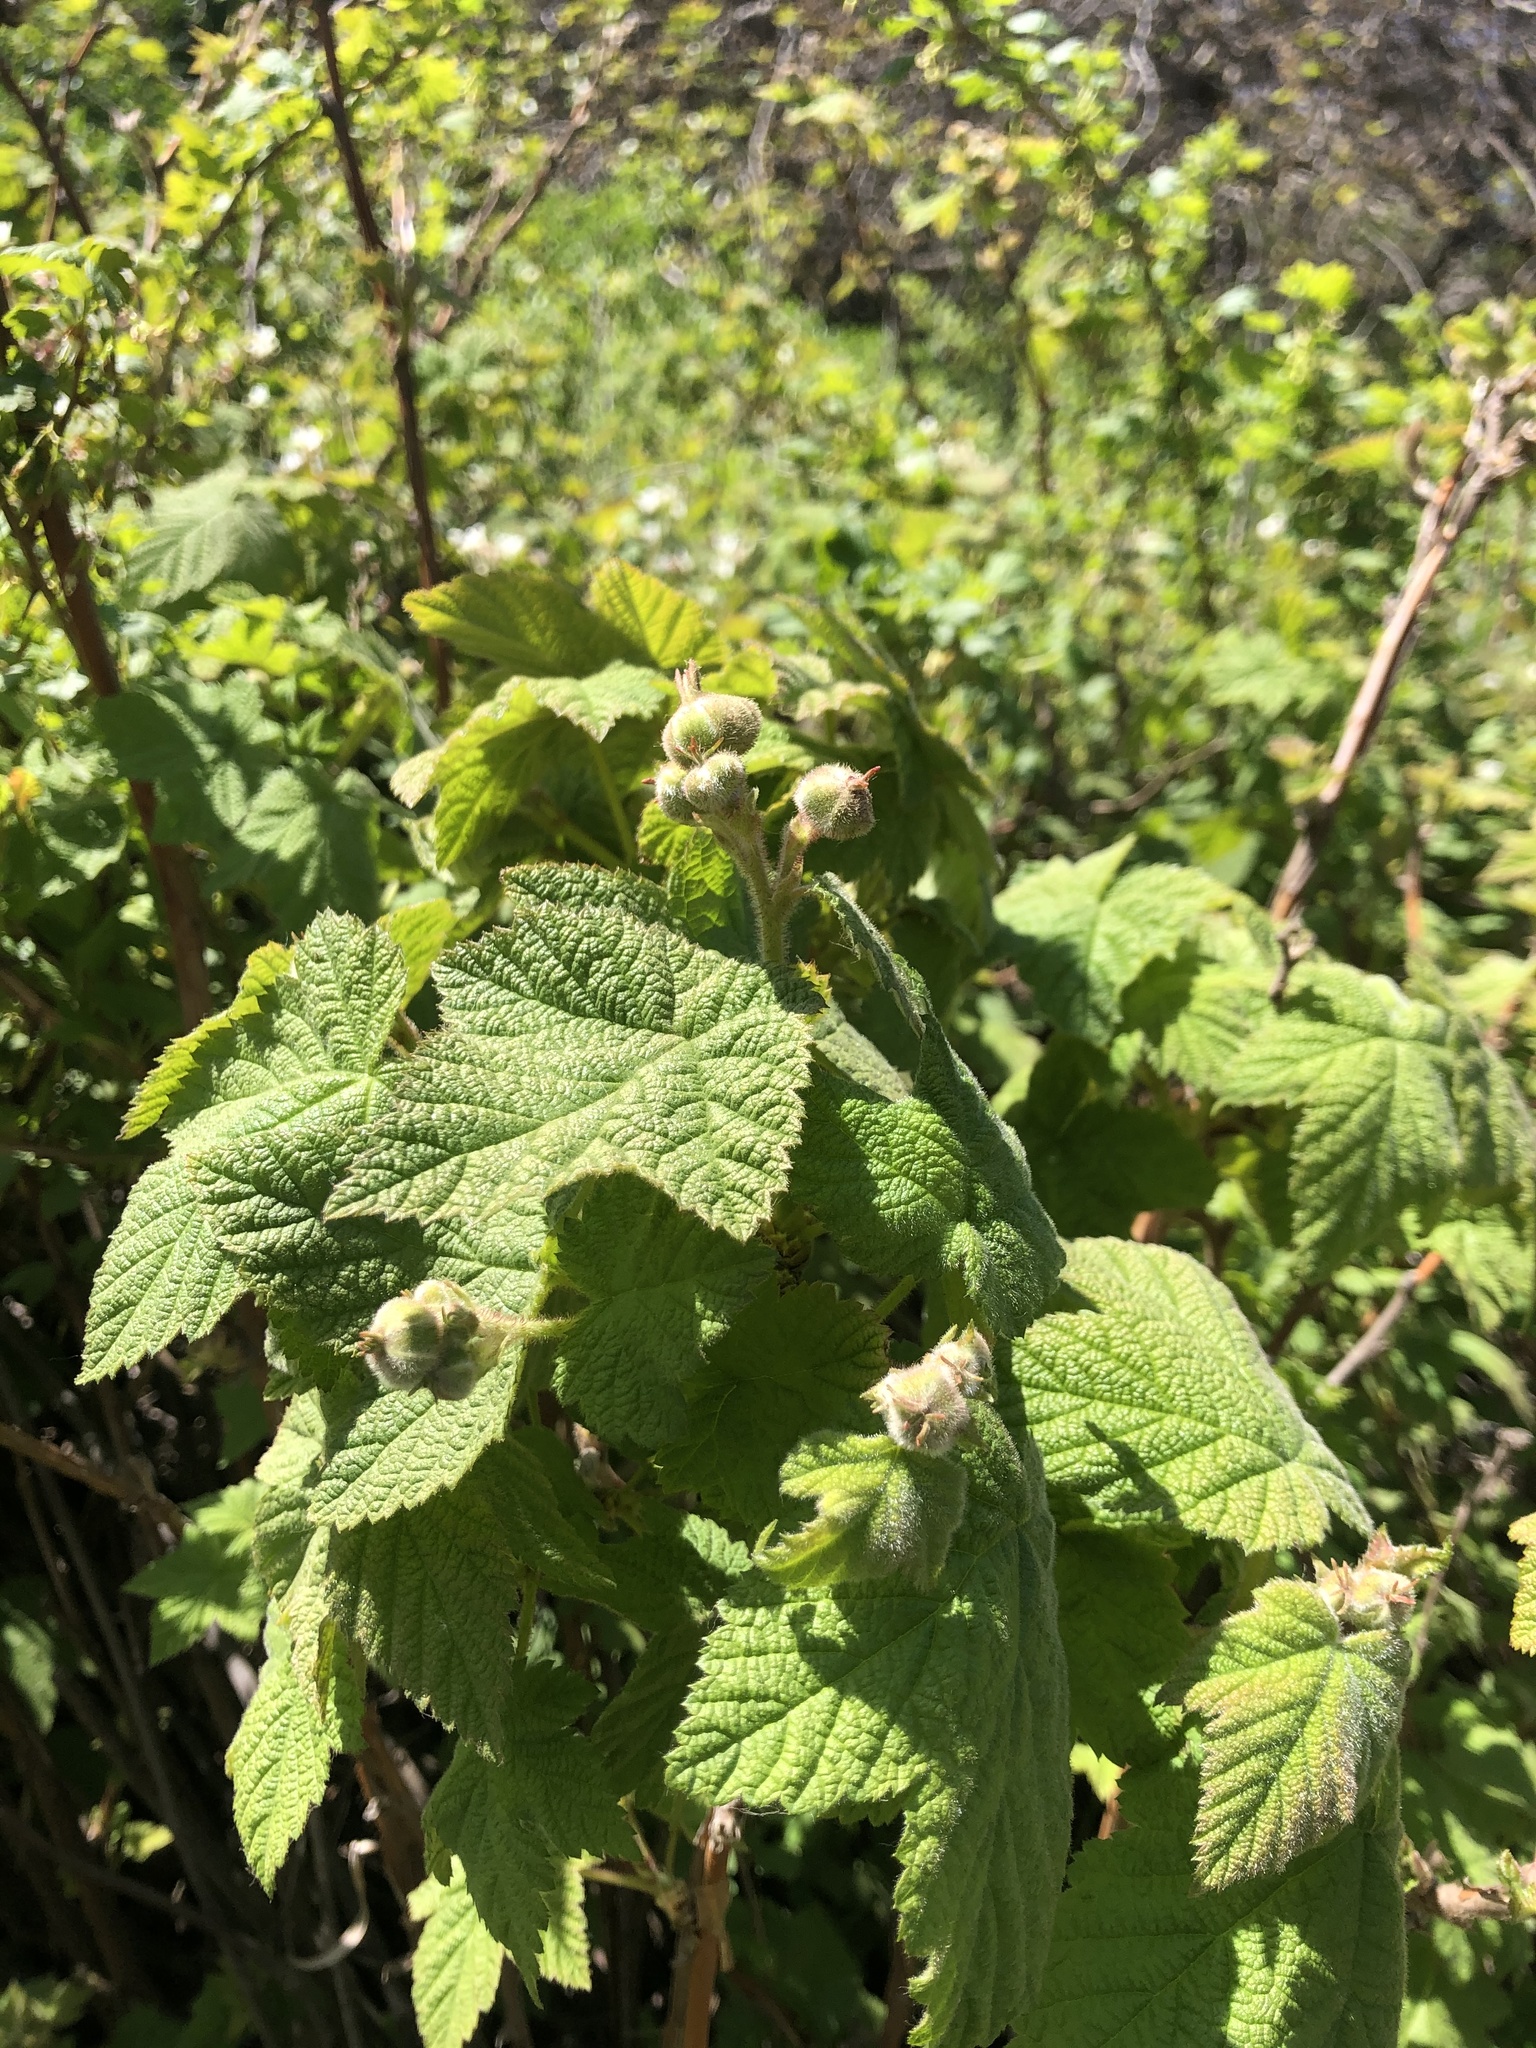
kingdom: Plantae
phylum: Tracheophyta
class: Magnoliopsida
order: Rosales
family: Rosaceae
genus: Rubus
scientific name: Rubus parviflorus
